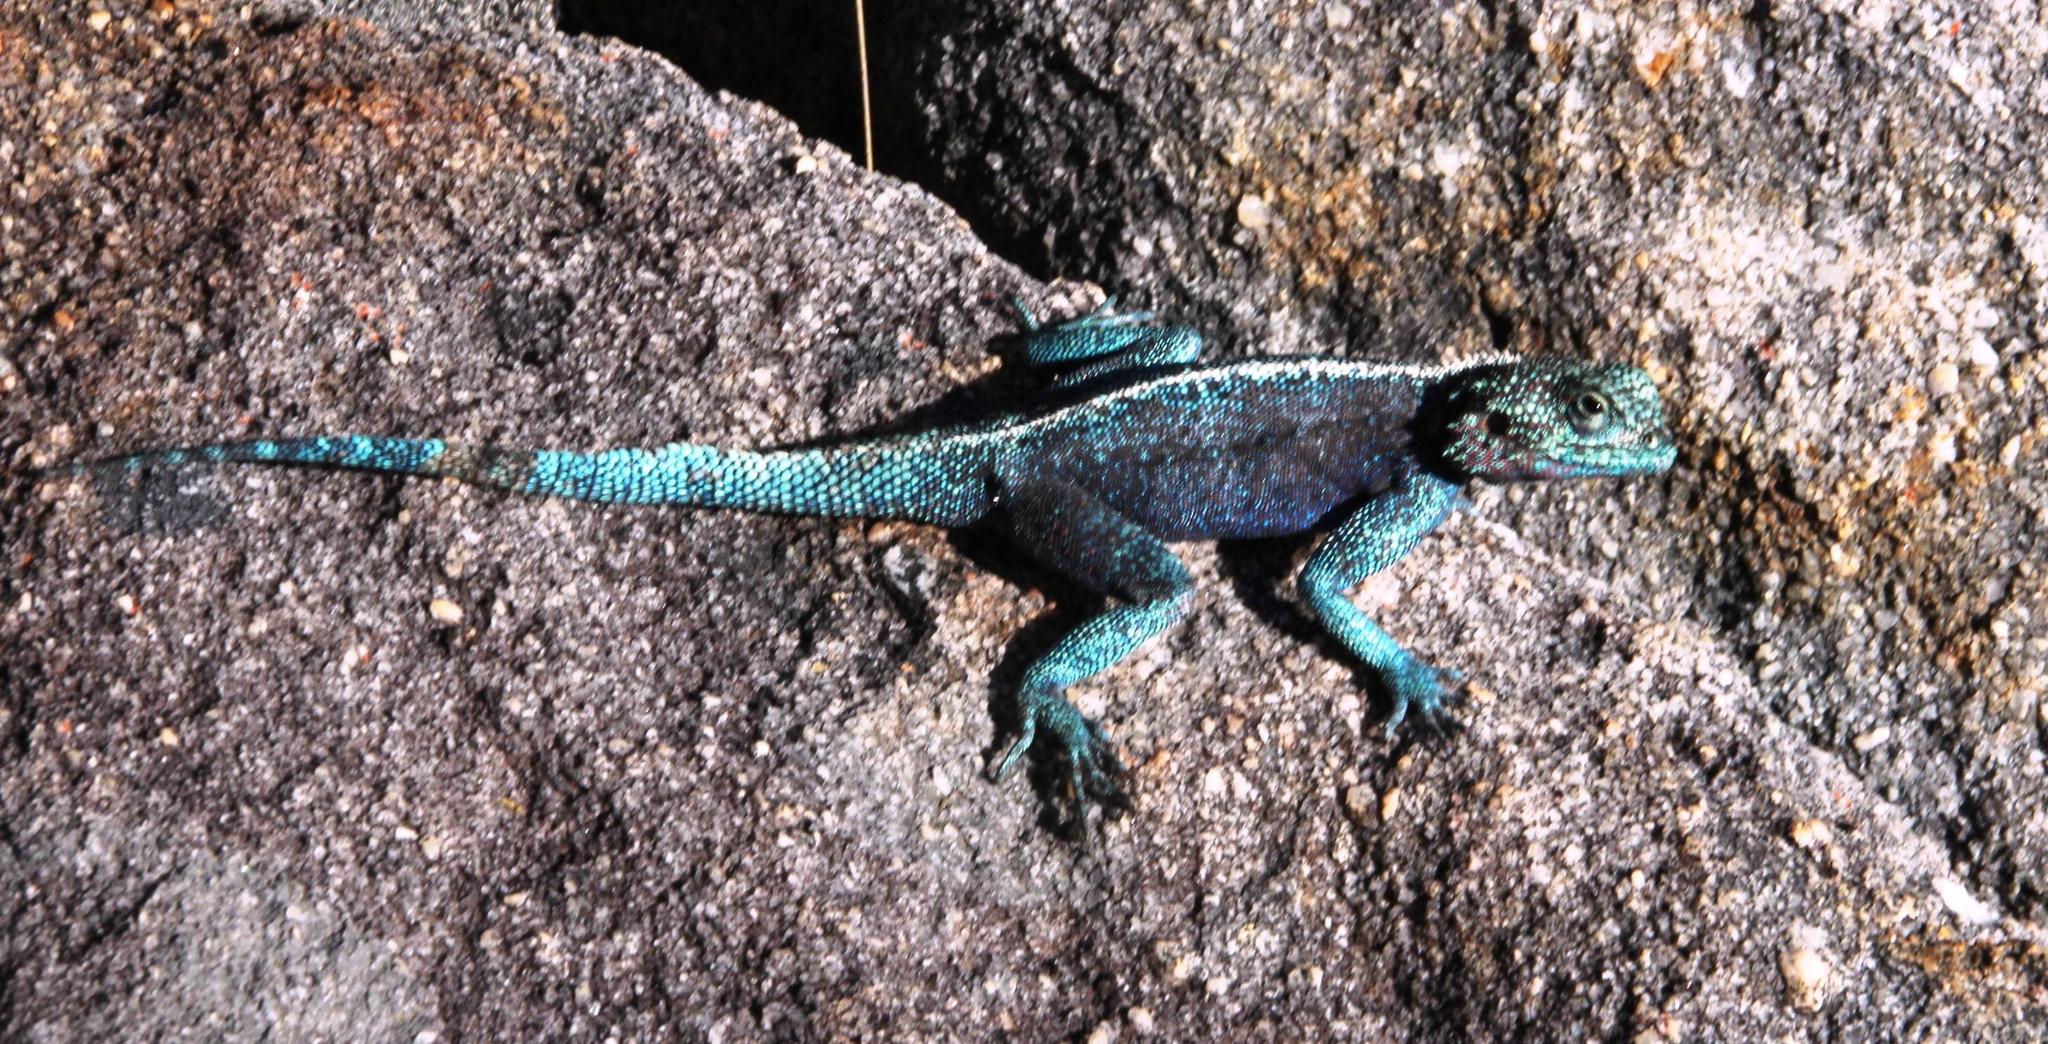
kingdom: Animalia
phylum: Chordata
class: Squamata
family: Agamidae
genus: Agama
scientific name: Agama atra
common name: Southern african rock agama
